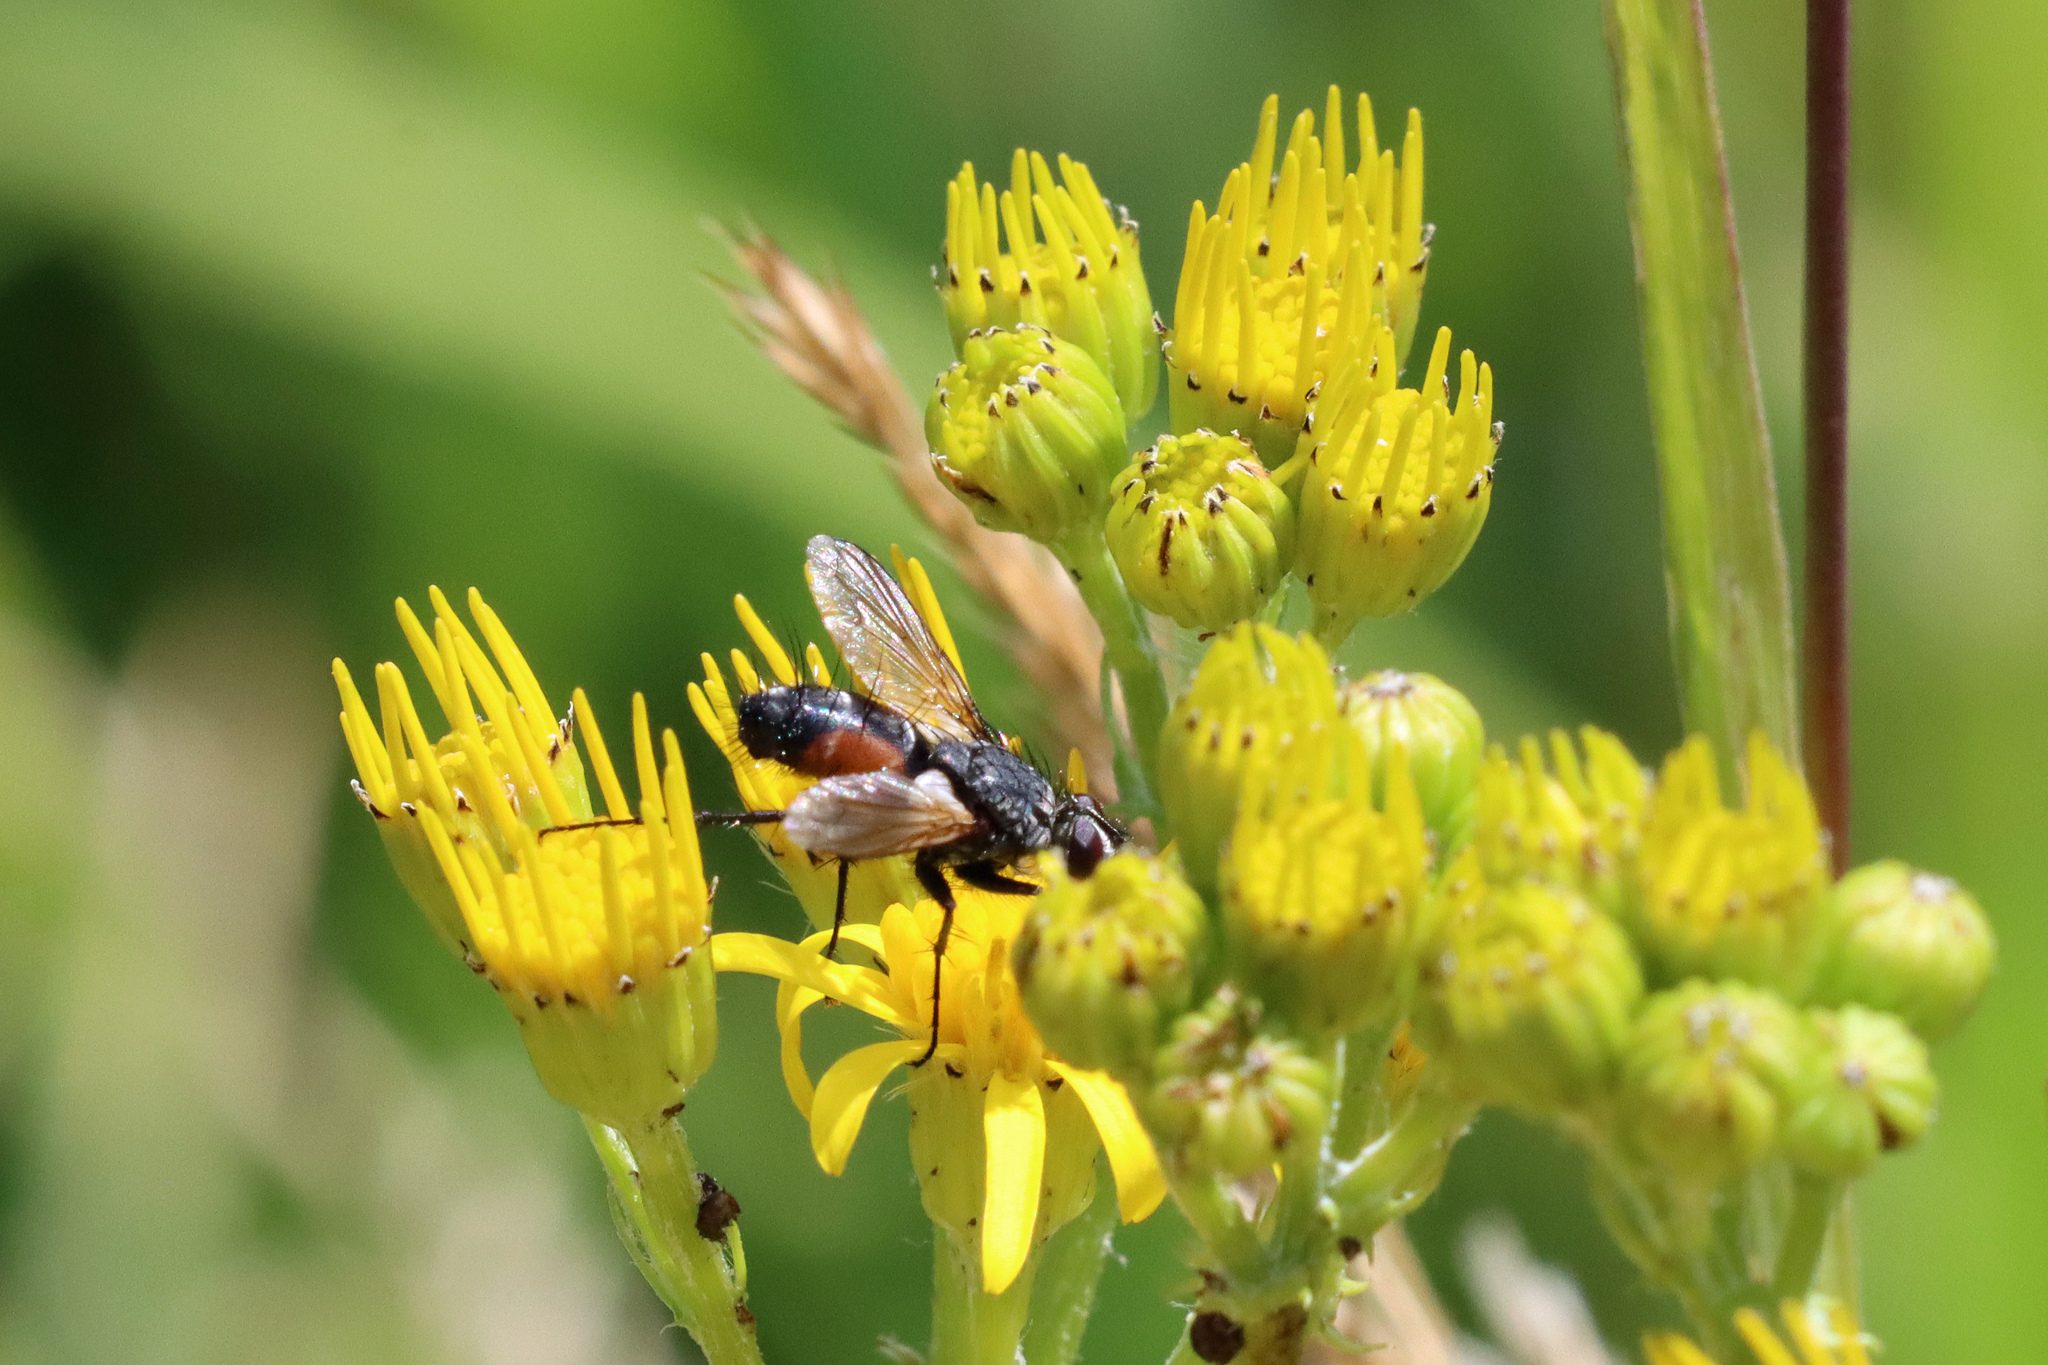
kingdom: Animalia
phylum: Arthropoda
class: Insecta
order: Diptera
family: Tachinidae
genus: Eriothrix
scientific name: Eriothrix rufomaculatus
